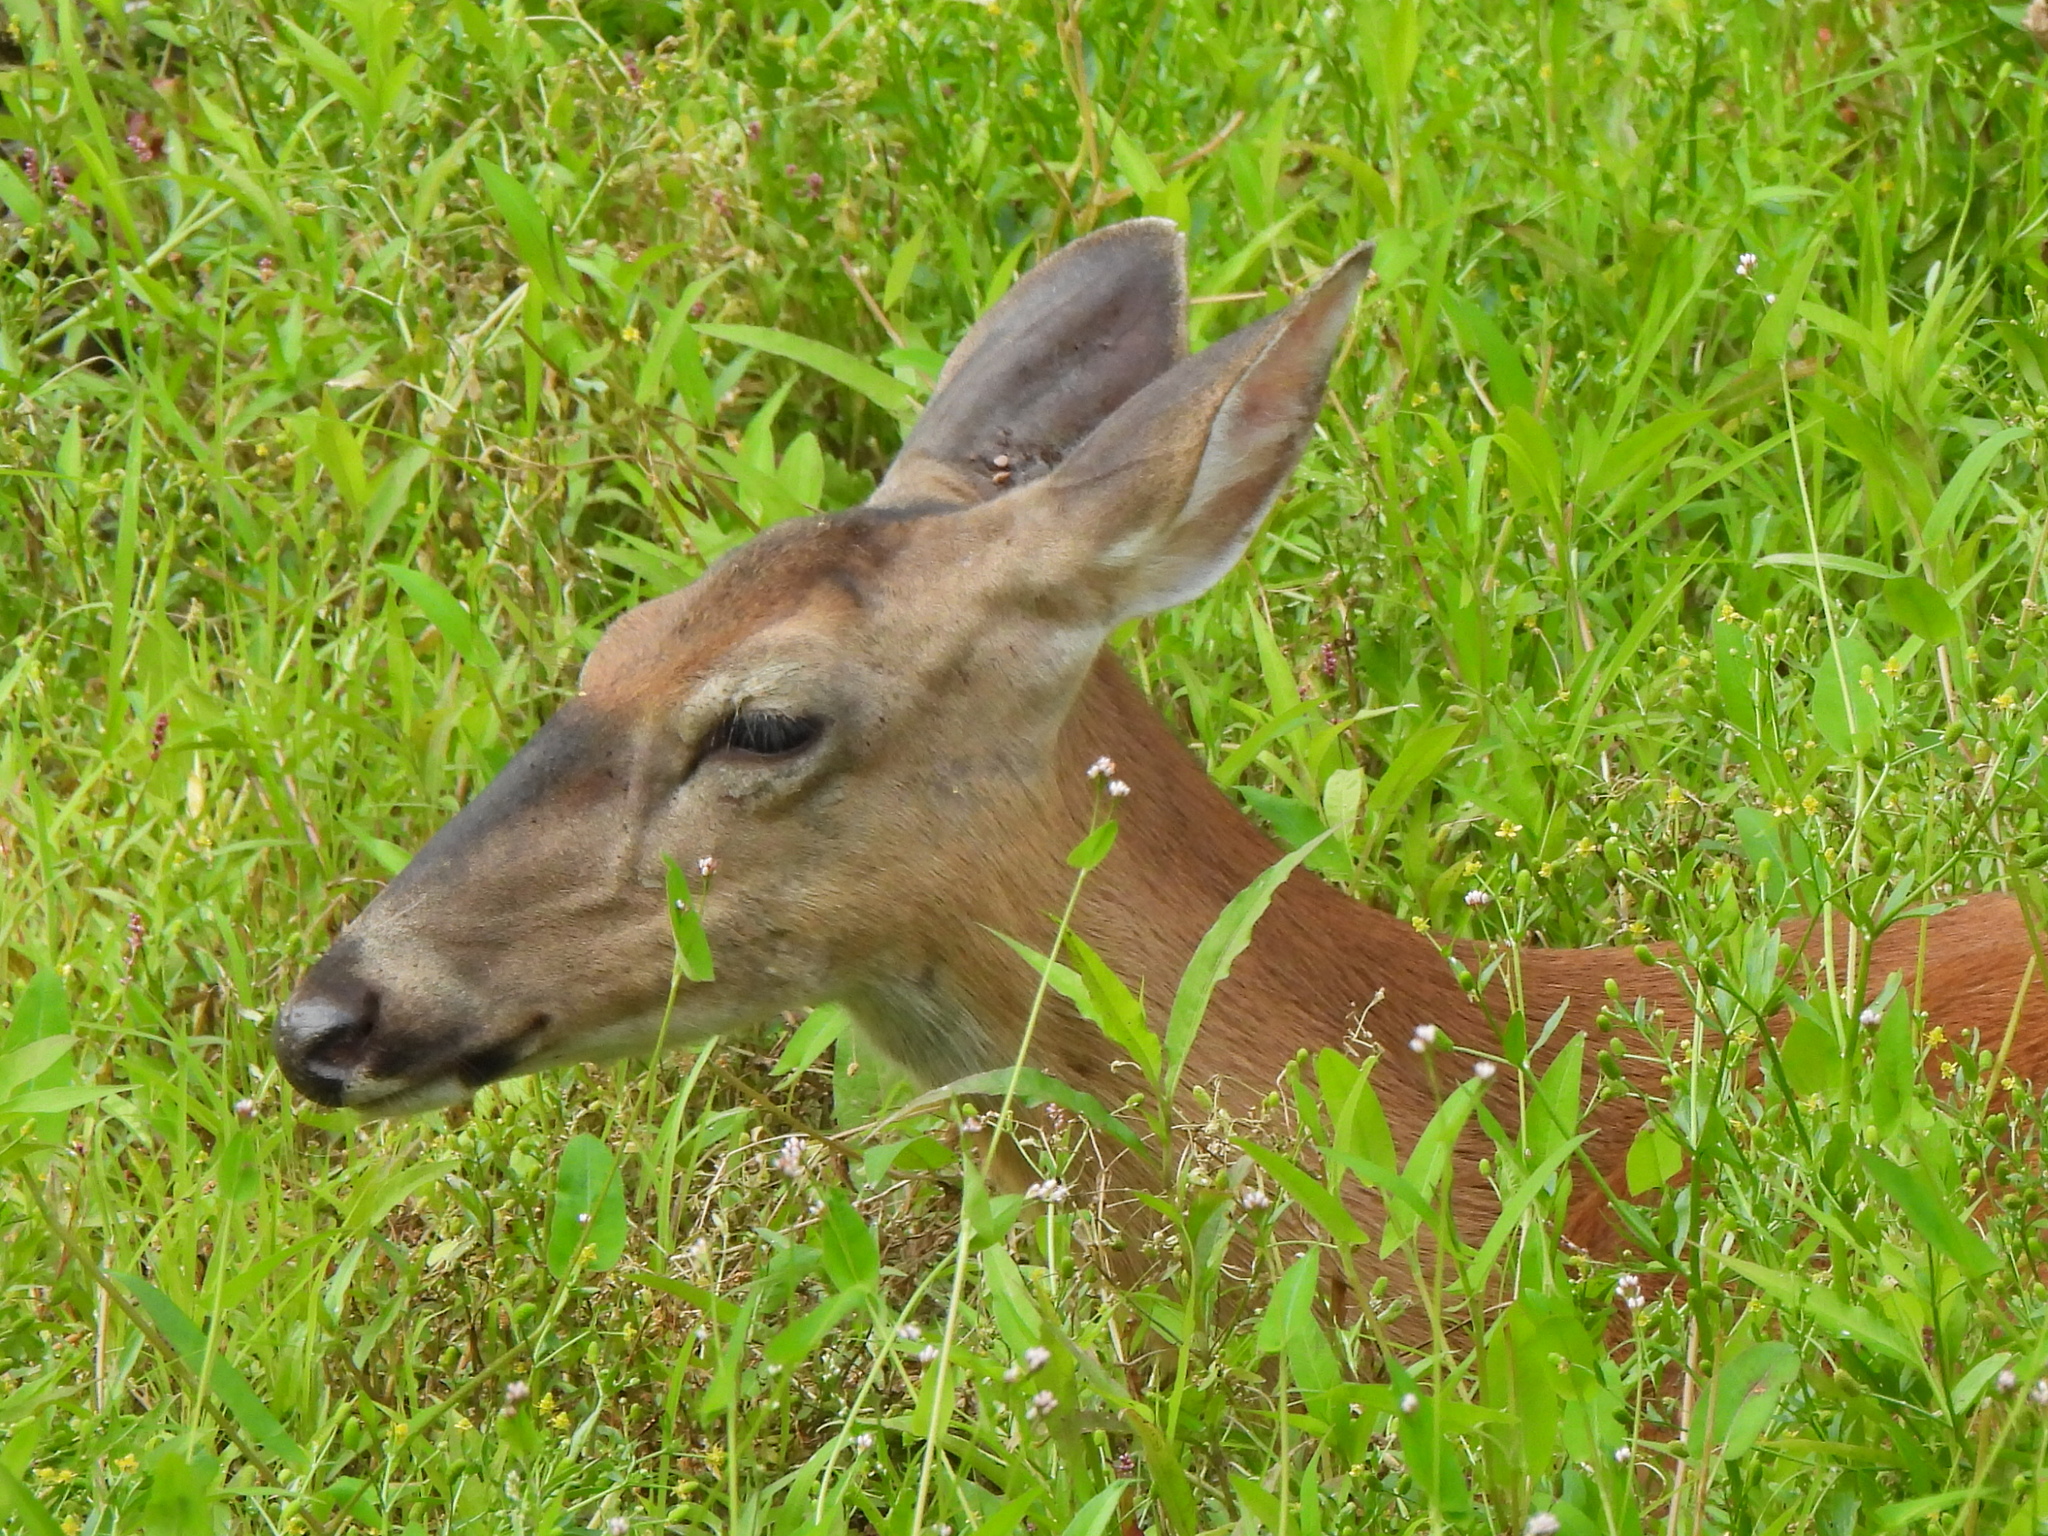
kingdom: Animalia
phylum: Chordata
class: Mammalia
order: Artiodactyla
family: Cervidae
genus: Odocoileus
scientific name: Odocoileus virginianus
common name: White-tailed deer
